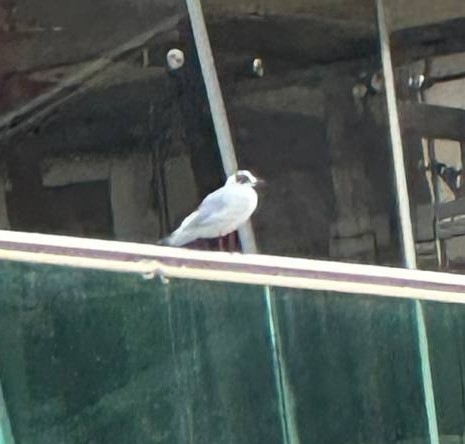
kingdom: Animalia
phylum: Chordata
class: Aves
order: Charadriiformes
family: Laridae
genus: Chroicocephalus
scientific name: Chroicocephalus ridibundus
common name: Black-headed gull
